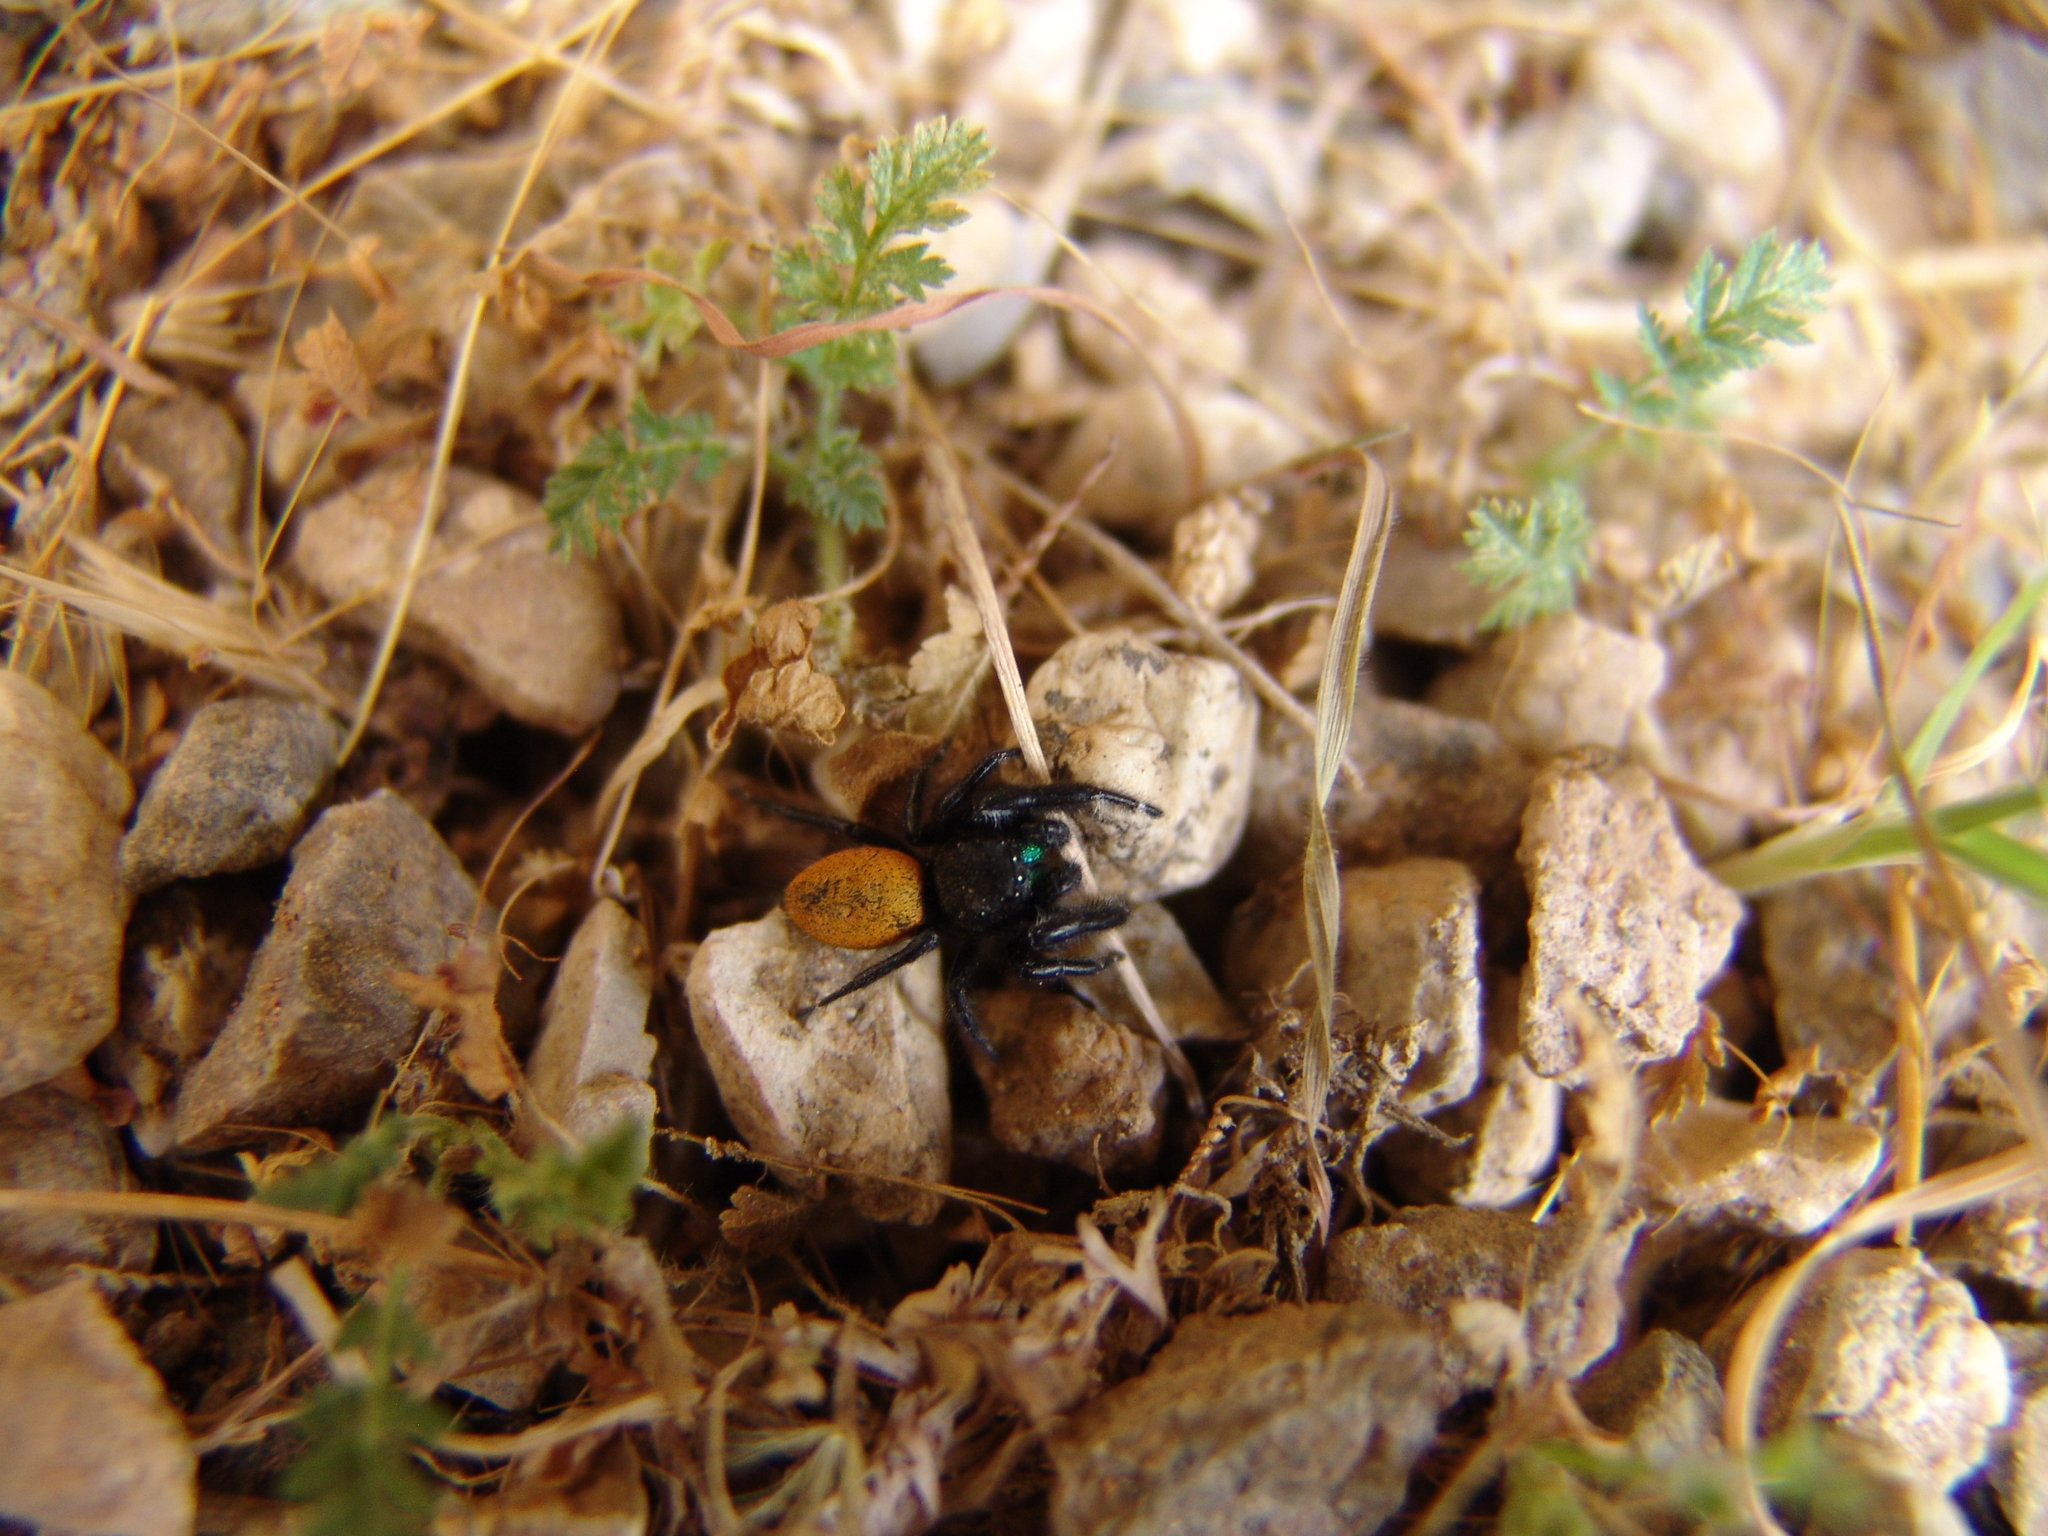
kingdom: Animalia
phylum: Arthropoda
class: Arachnida
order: Araneae
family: Salticidae
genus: Phidippus
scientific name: Phidippus johnsoni
